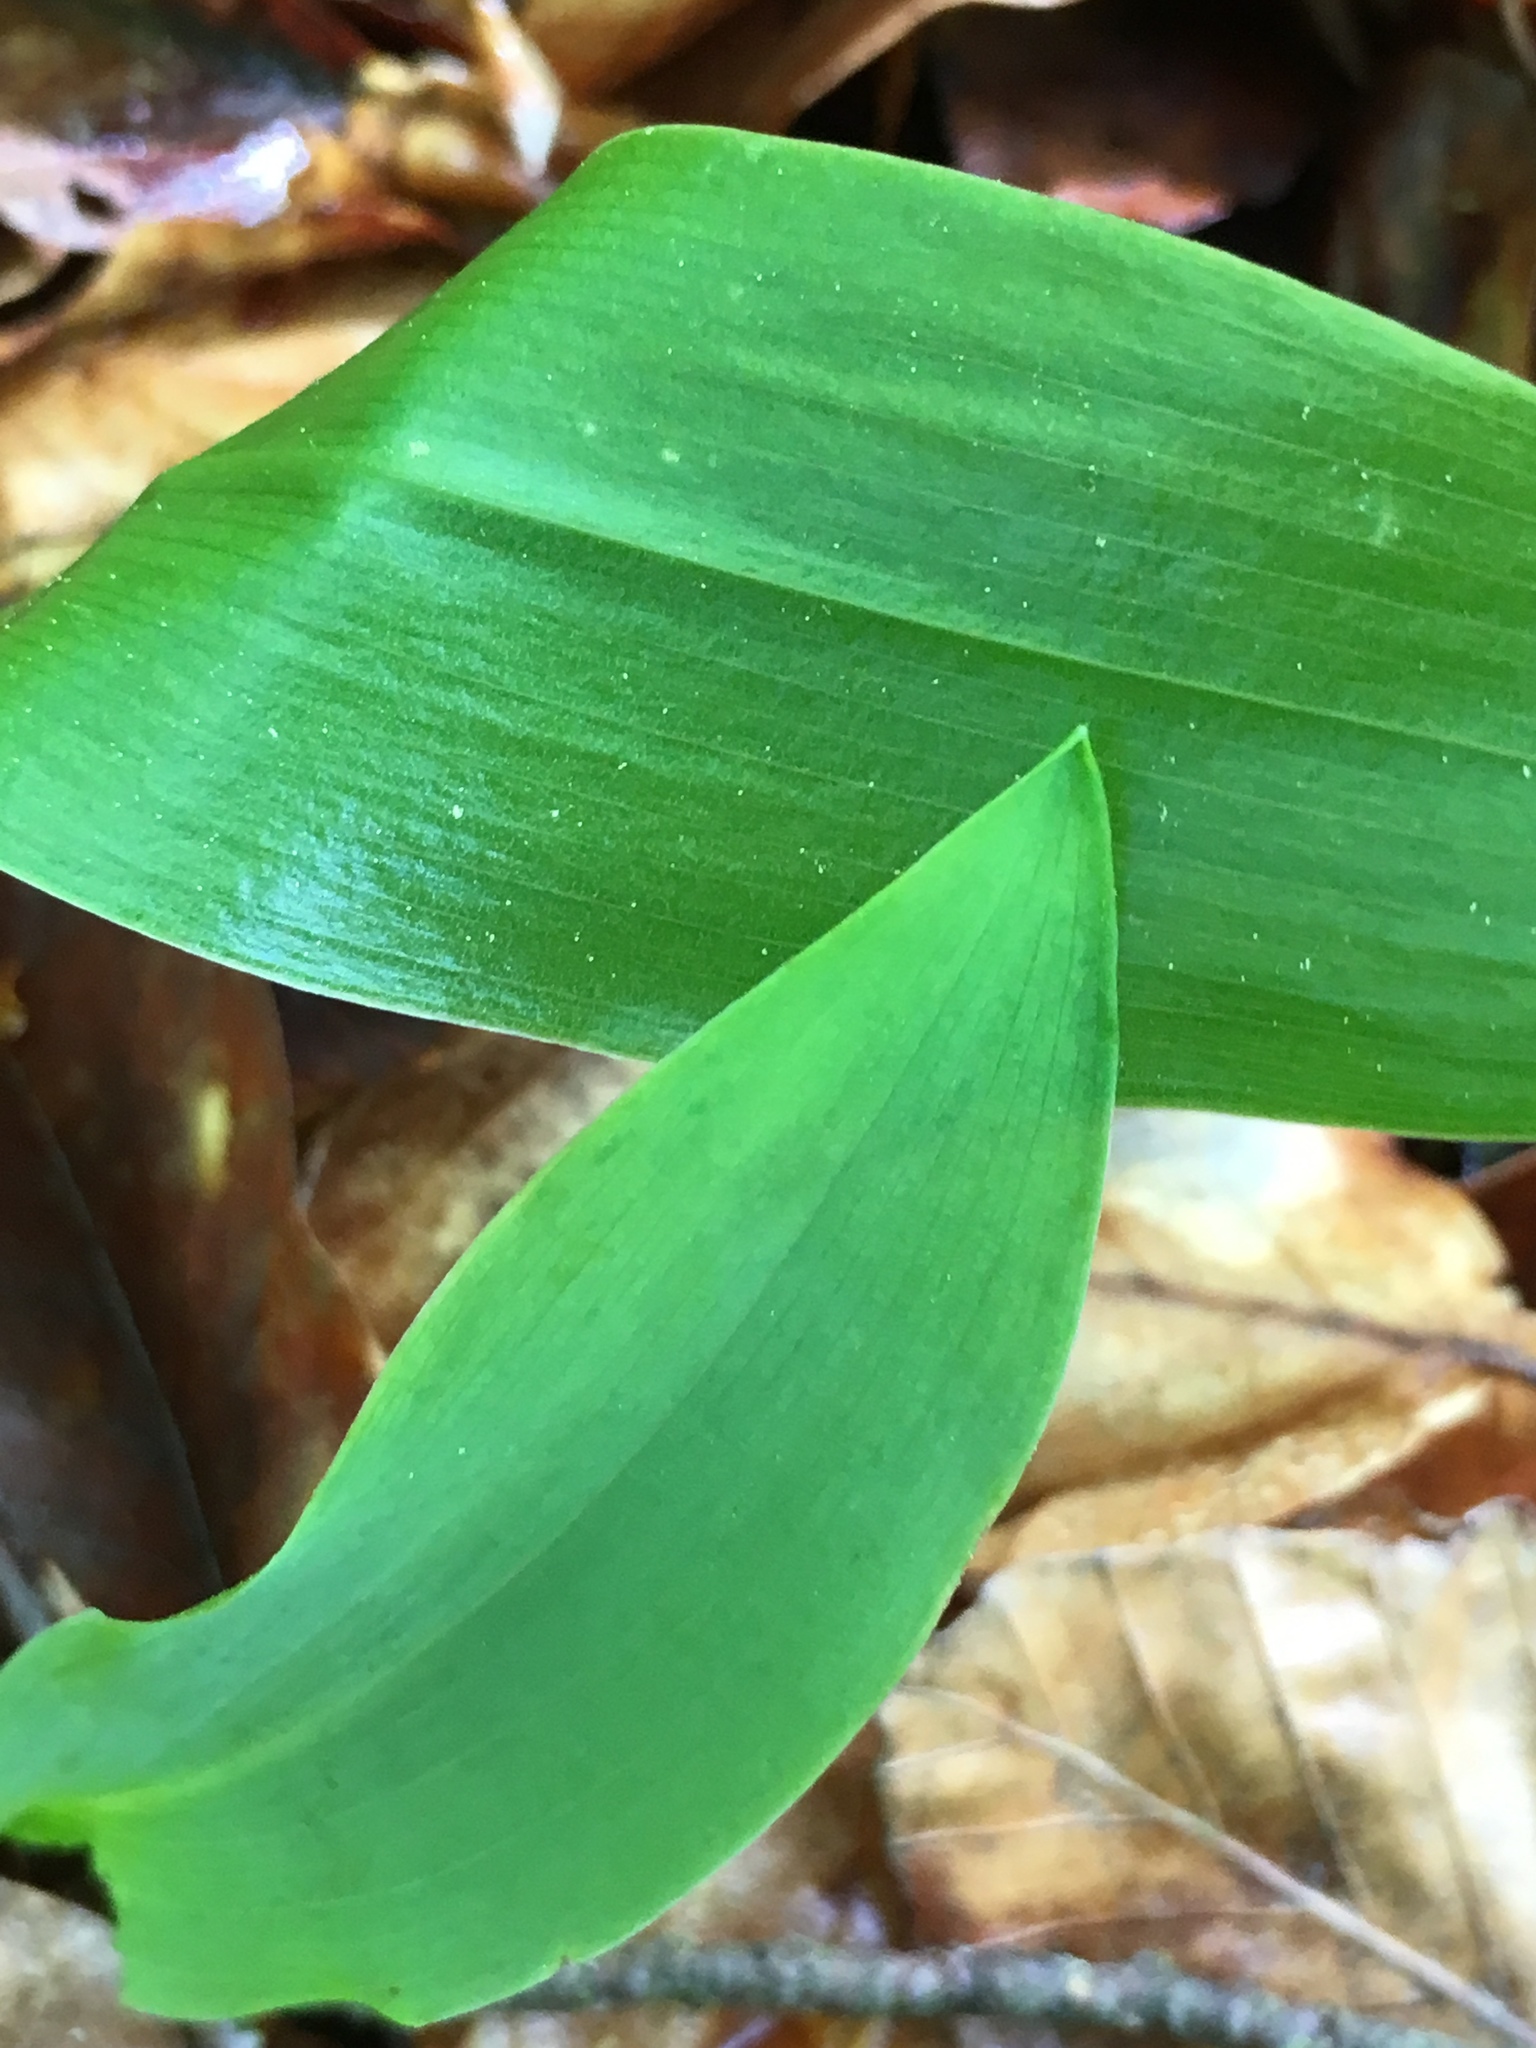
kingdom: Plantae
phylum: Tracheophyta
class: Liliopsida
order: Asparagales
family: Asparagaceae
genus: Convallaria
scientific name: Convallaria majalis
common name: Lily-of-the-valley
